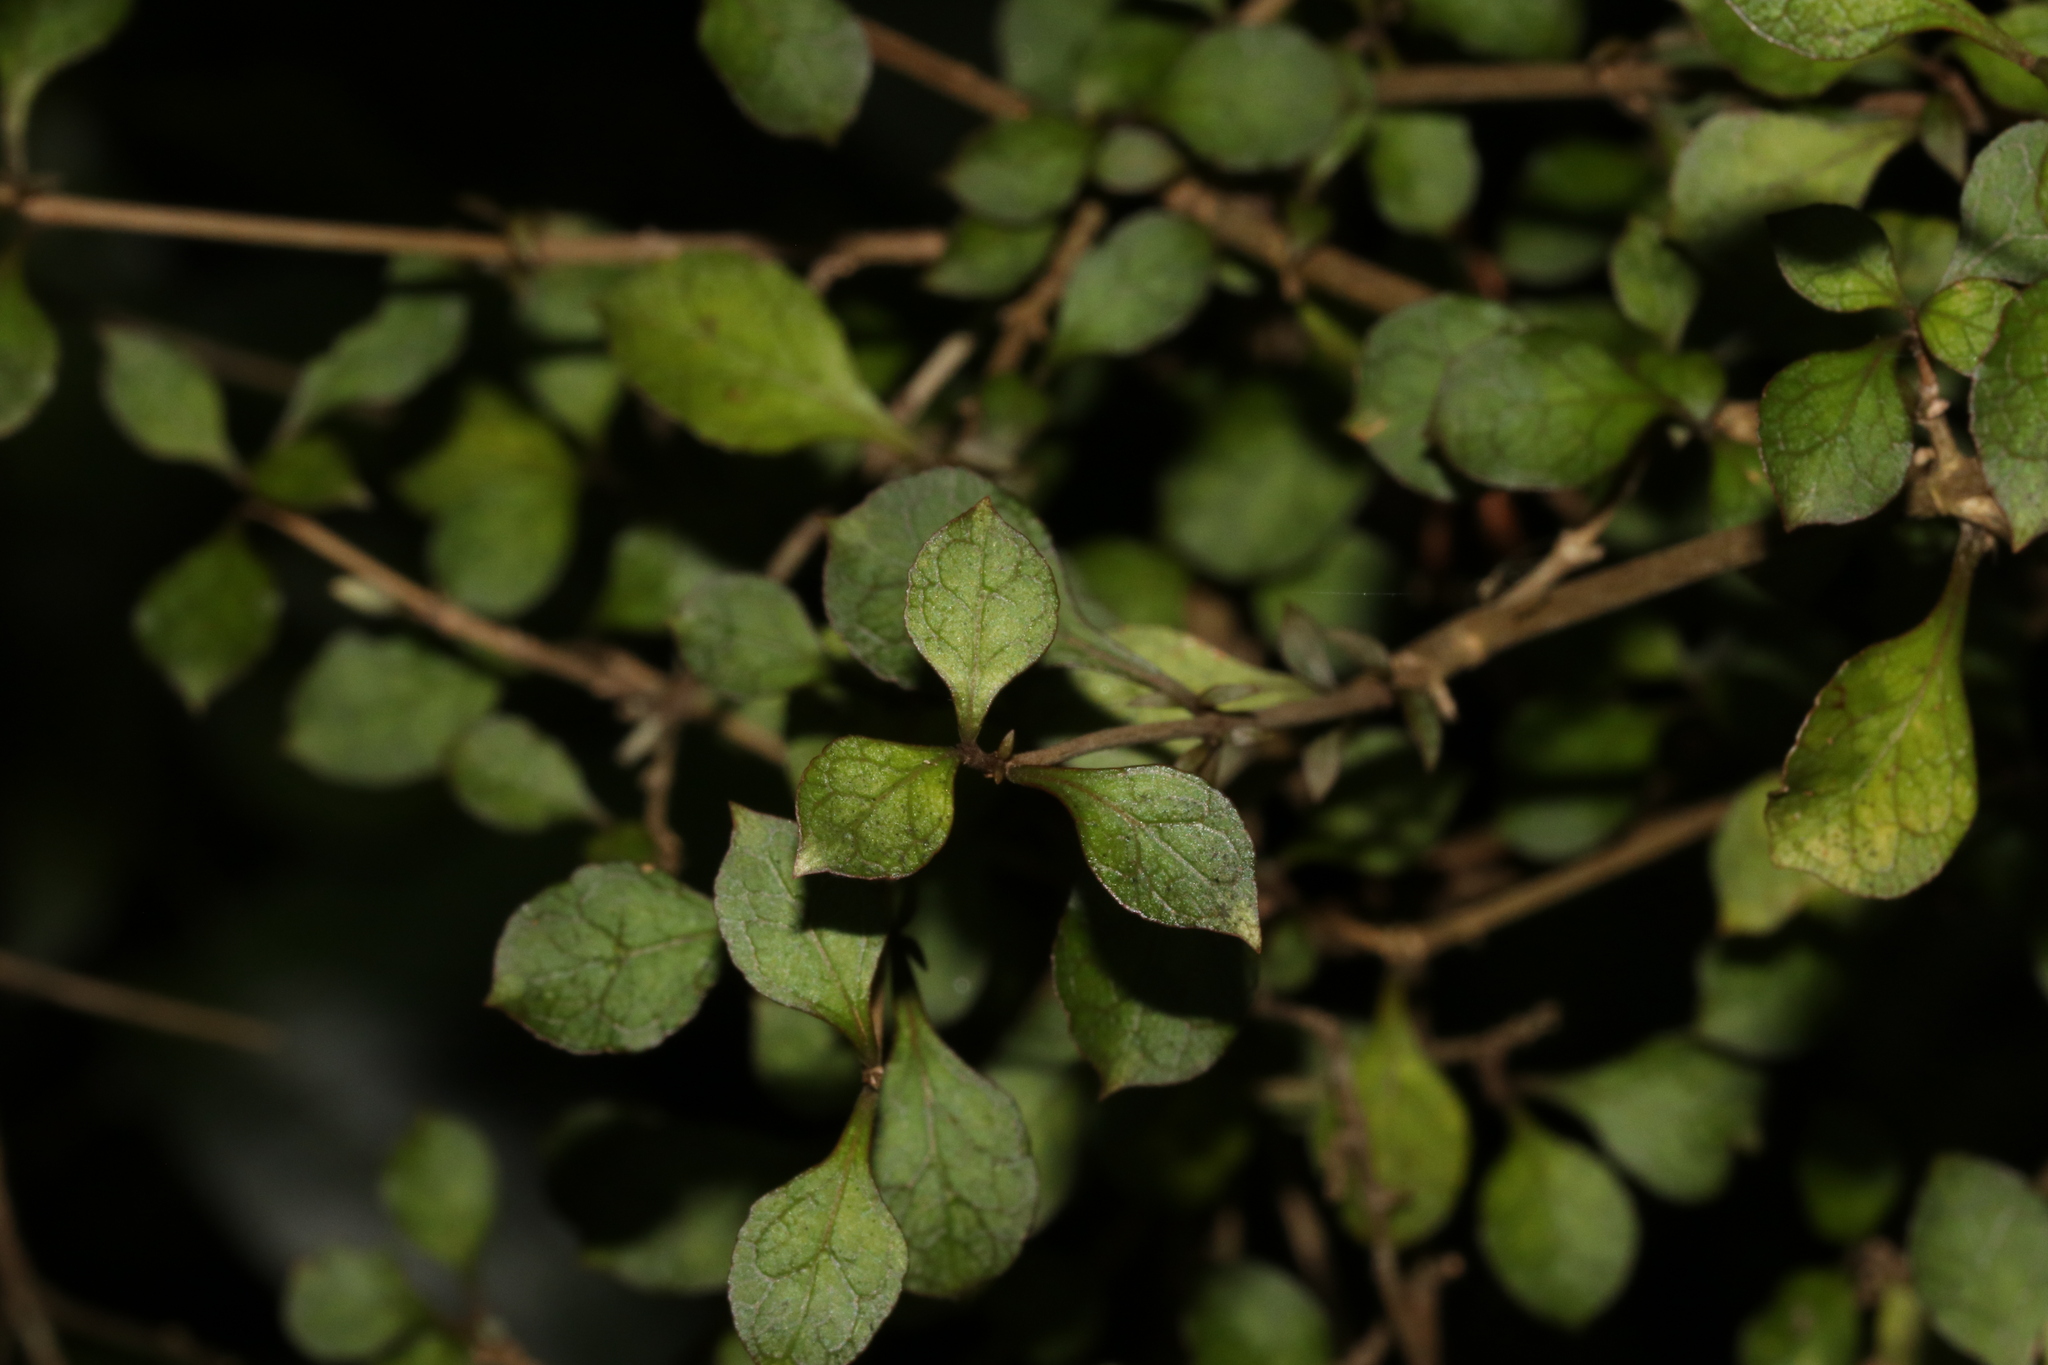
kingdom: Plantae
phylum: Tracheophyta
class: Magnoliopsida
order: Gentianales
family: Rubiaceae
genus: Coprosma
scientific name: Coprosma areolata
